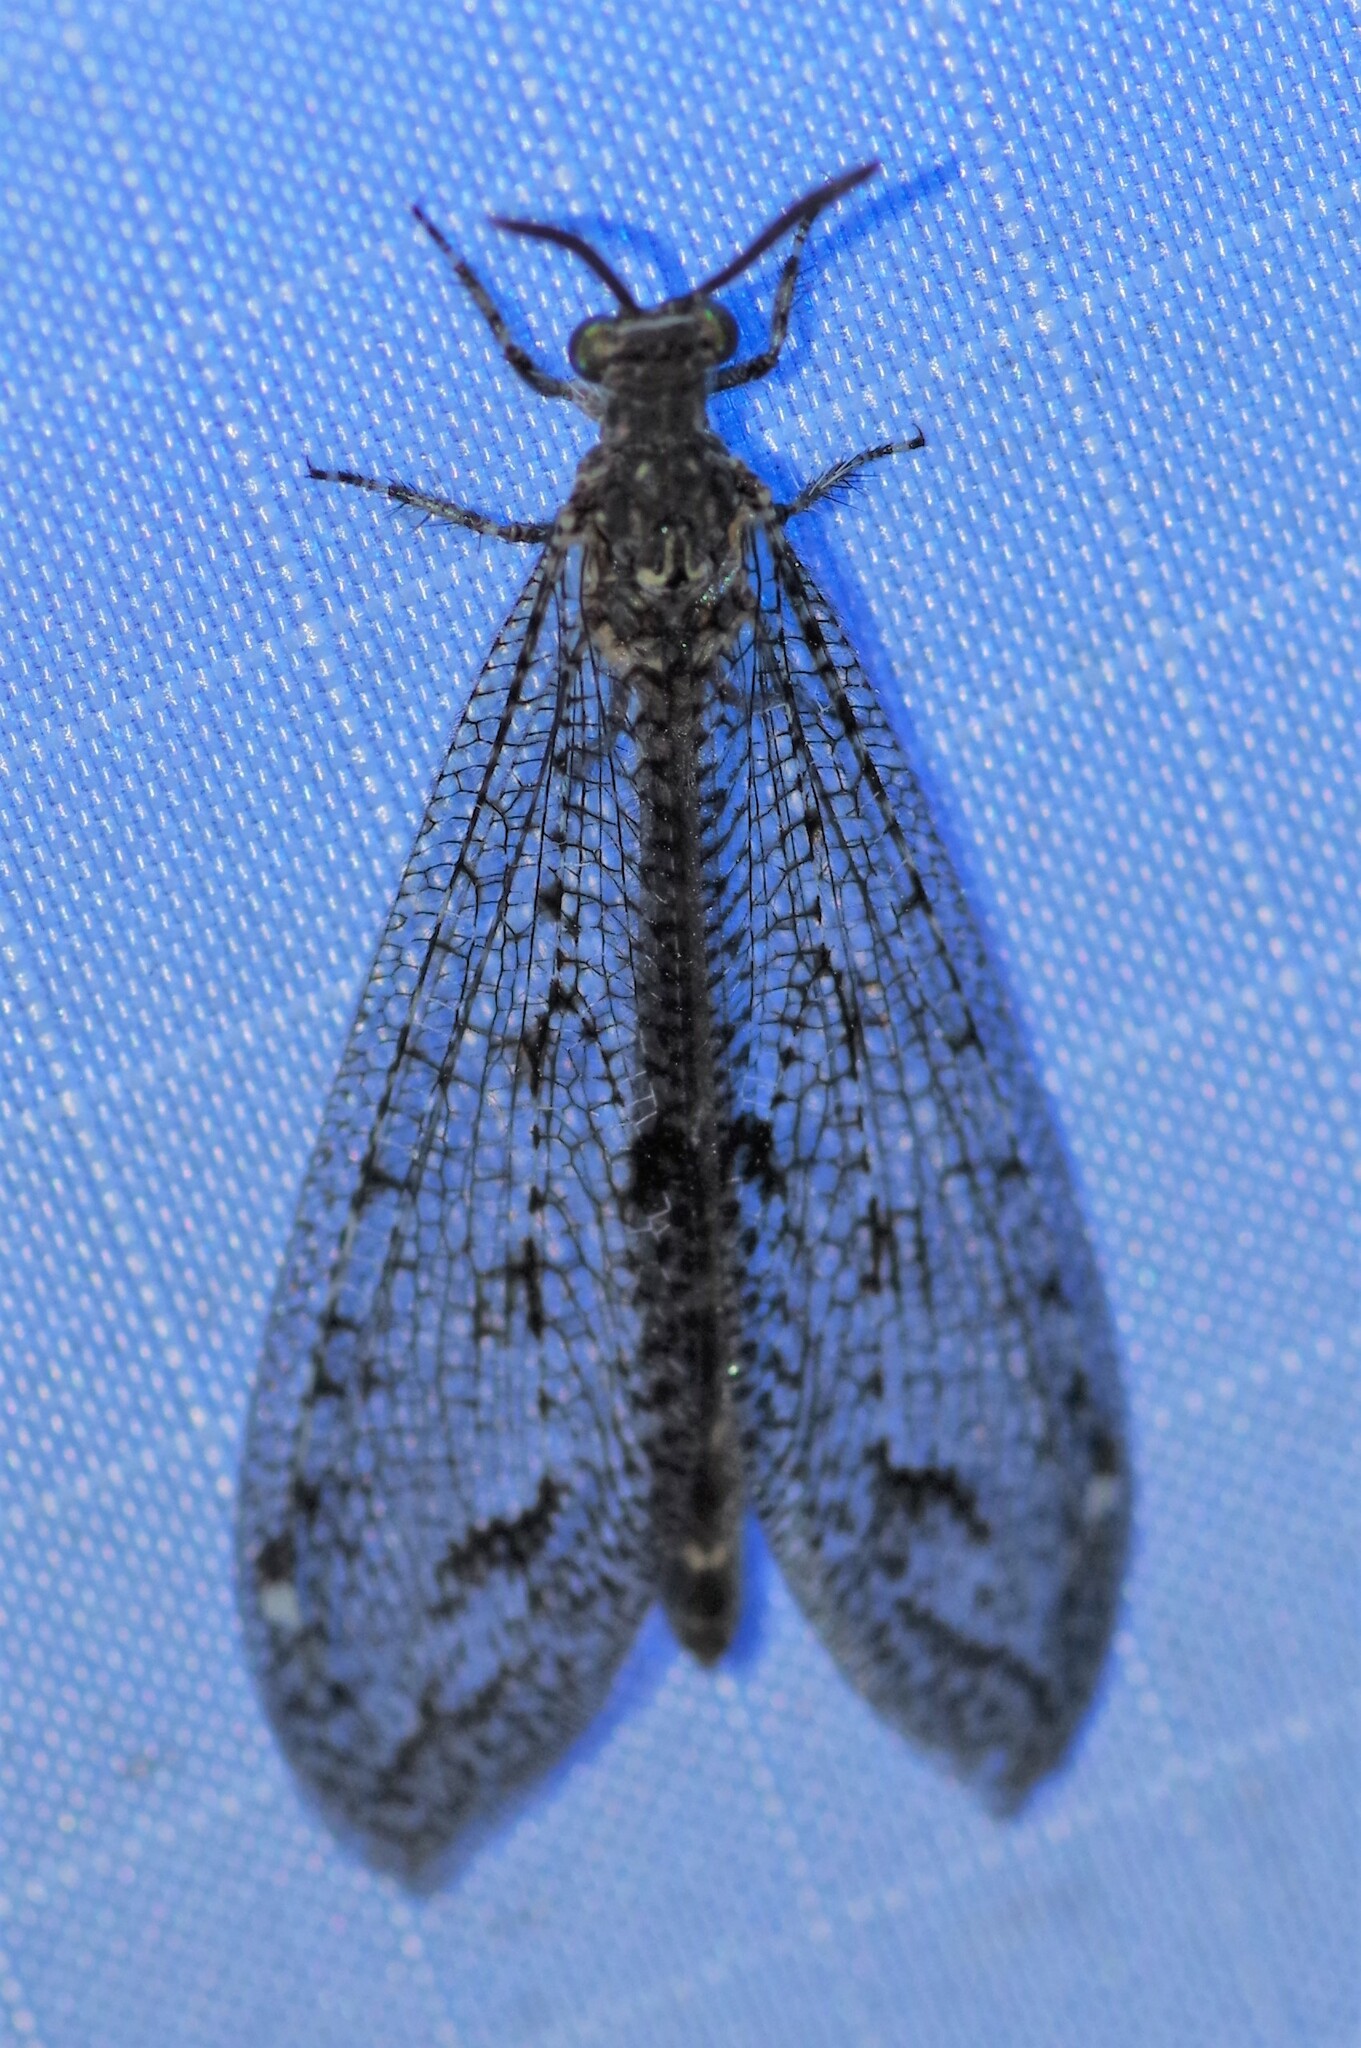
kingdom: Animalia
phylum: Arthropoda
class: Insecta
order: Neuroptera
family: Myrmeleontidae
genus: Brachynemurus
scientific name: Brachynemurus nebulosus
